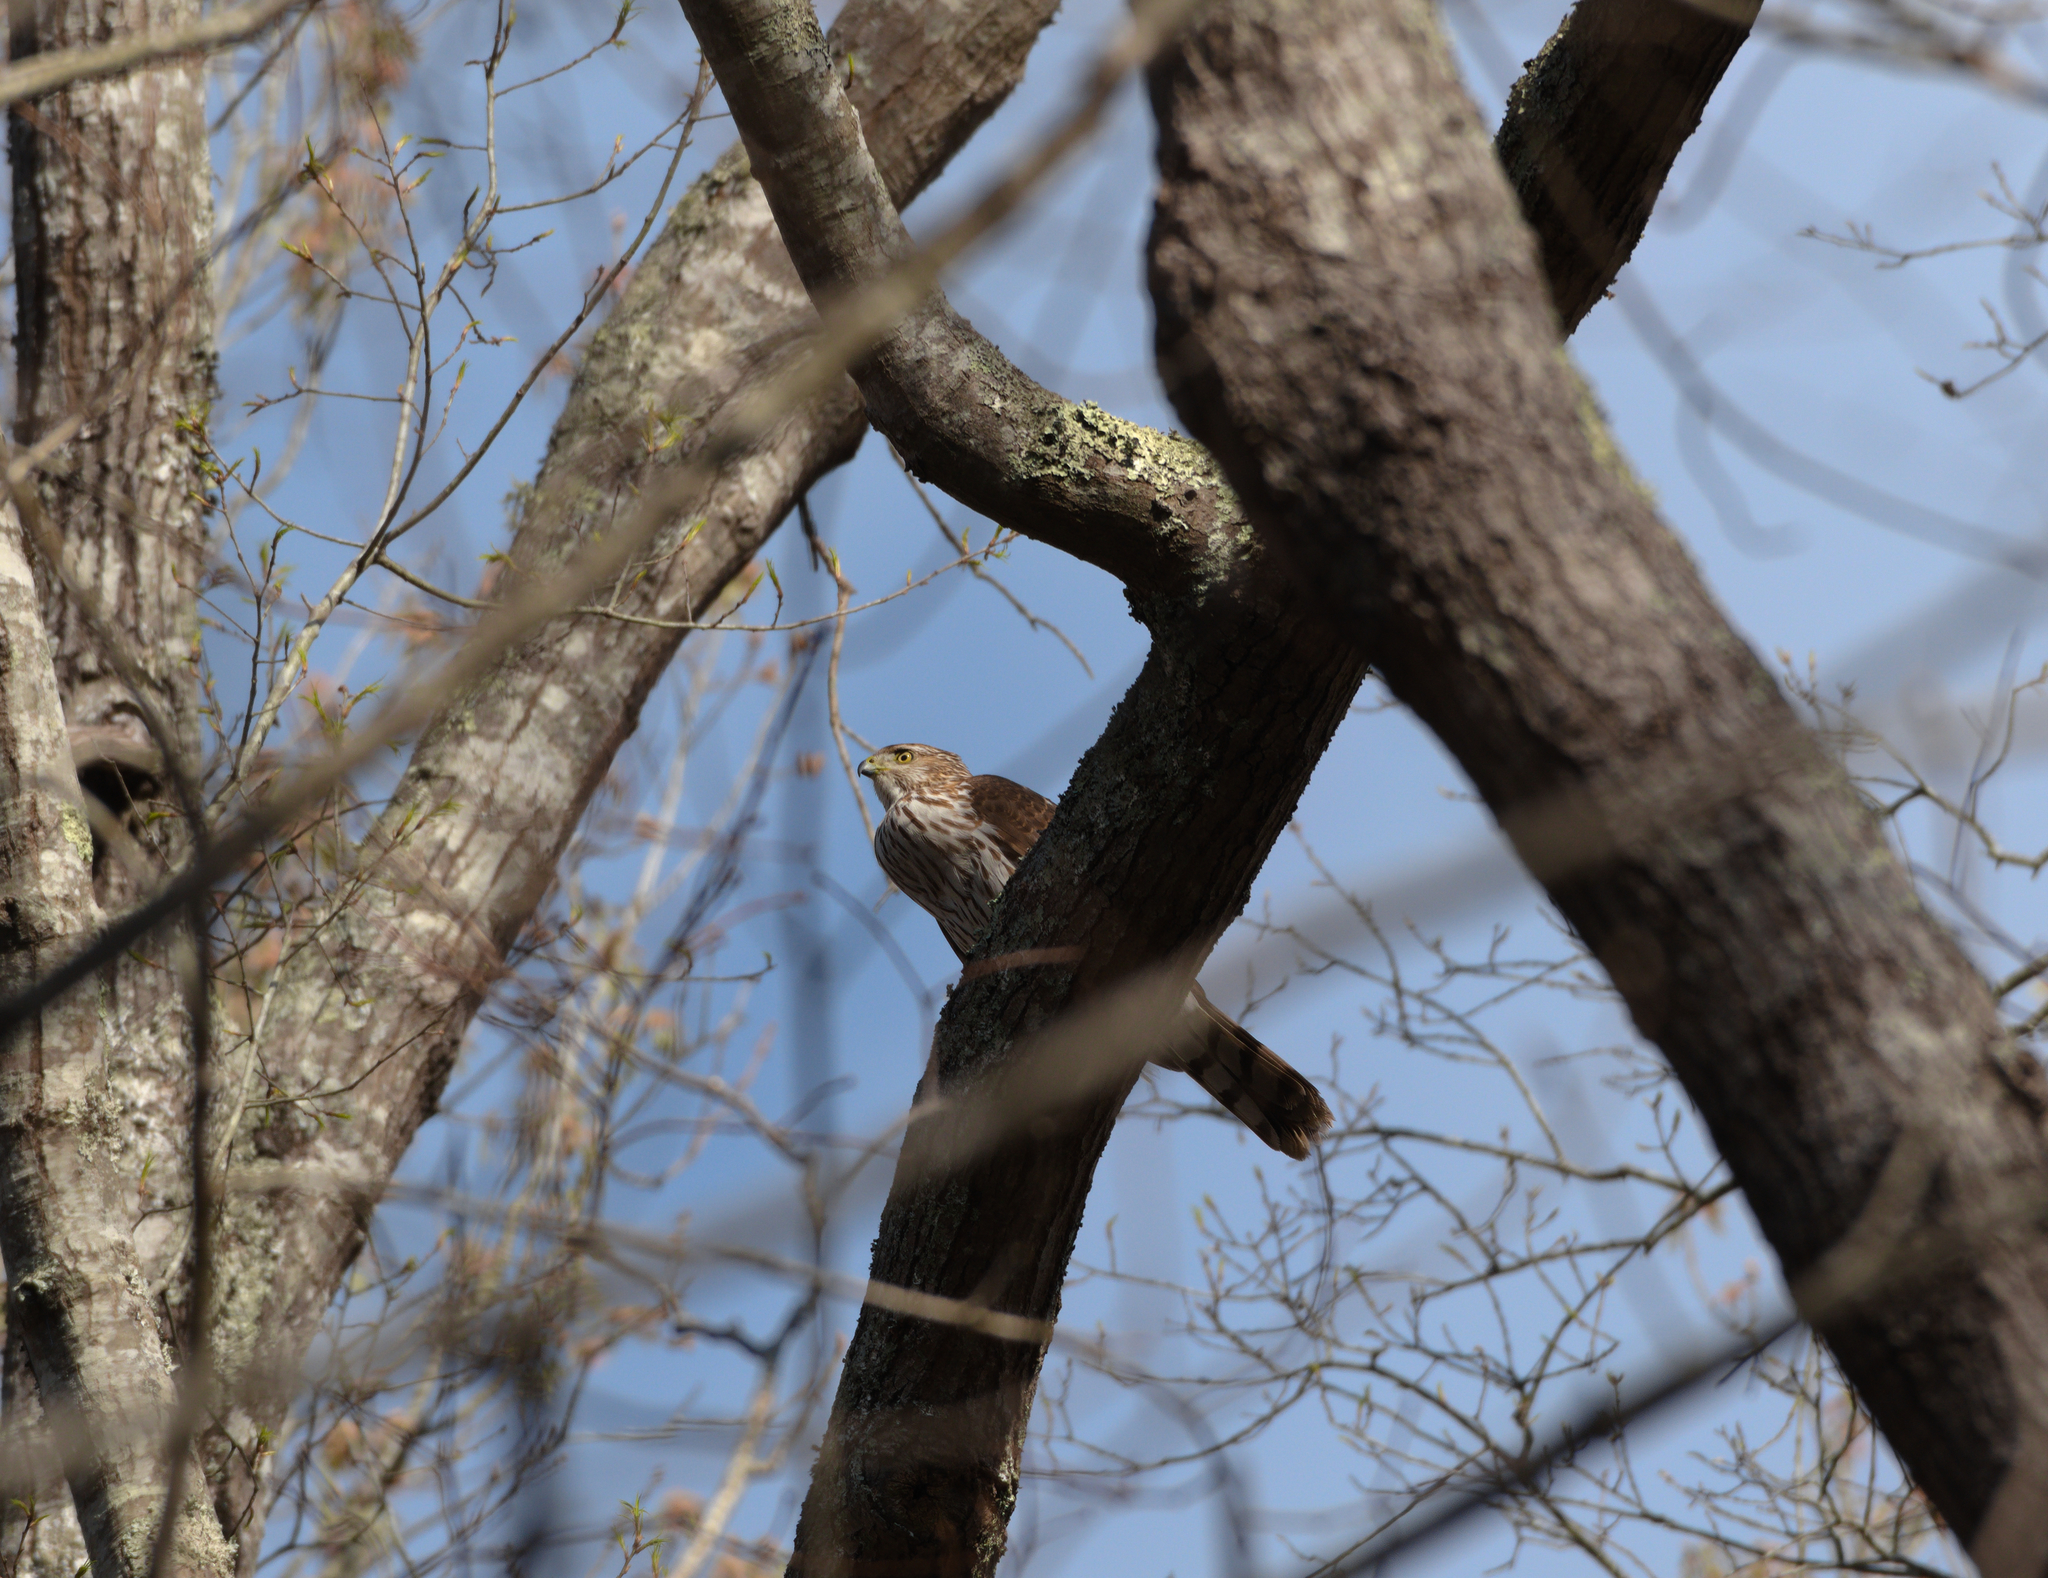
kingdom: Animalia
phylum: Chordata
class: Aves
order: Accipitriformes
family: Accipitridae
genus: Accipiter
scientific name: Accipiter cooperii
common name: Cooper's hawk
